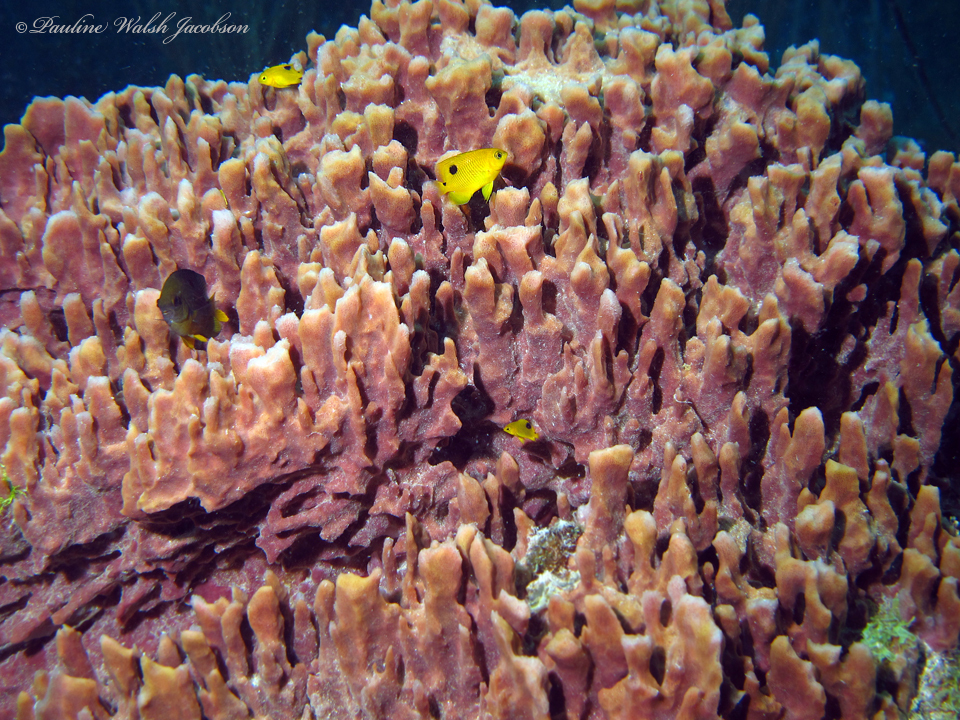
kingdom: Animalia
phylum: Chordata
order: Perciformes
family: Pomacentridae
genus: Stegastes
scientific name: Stegastes planifrons
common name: Threespot damselfish
